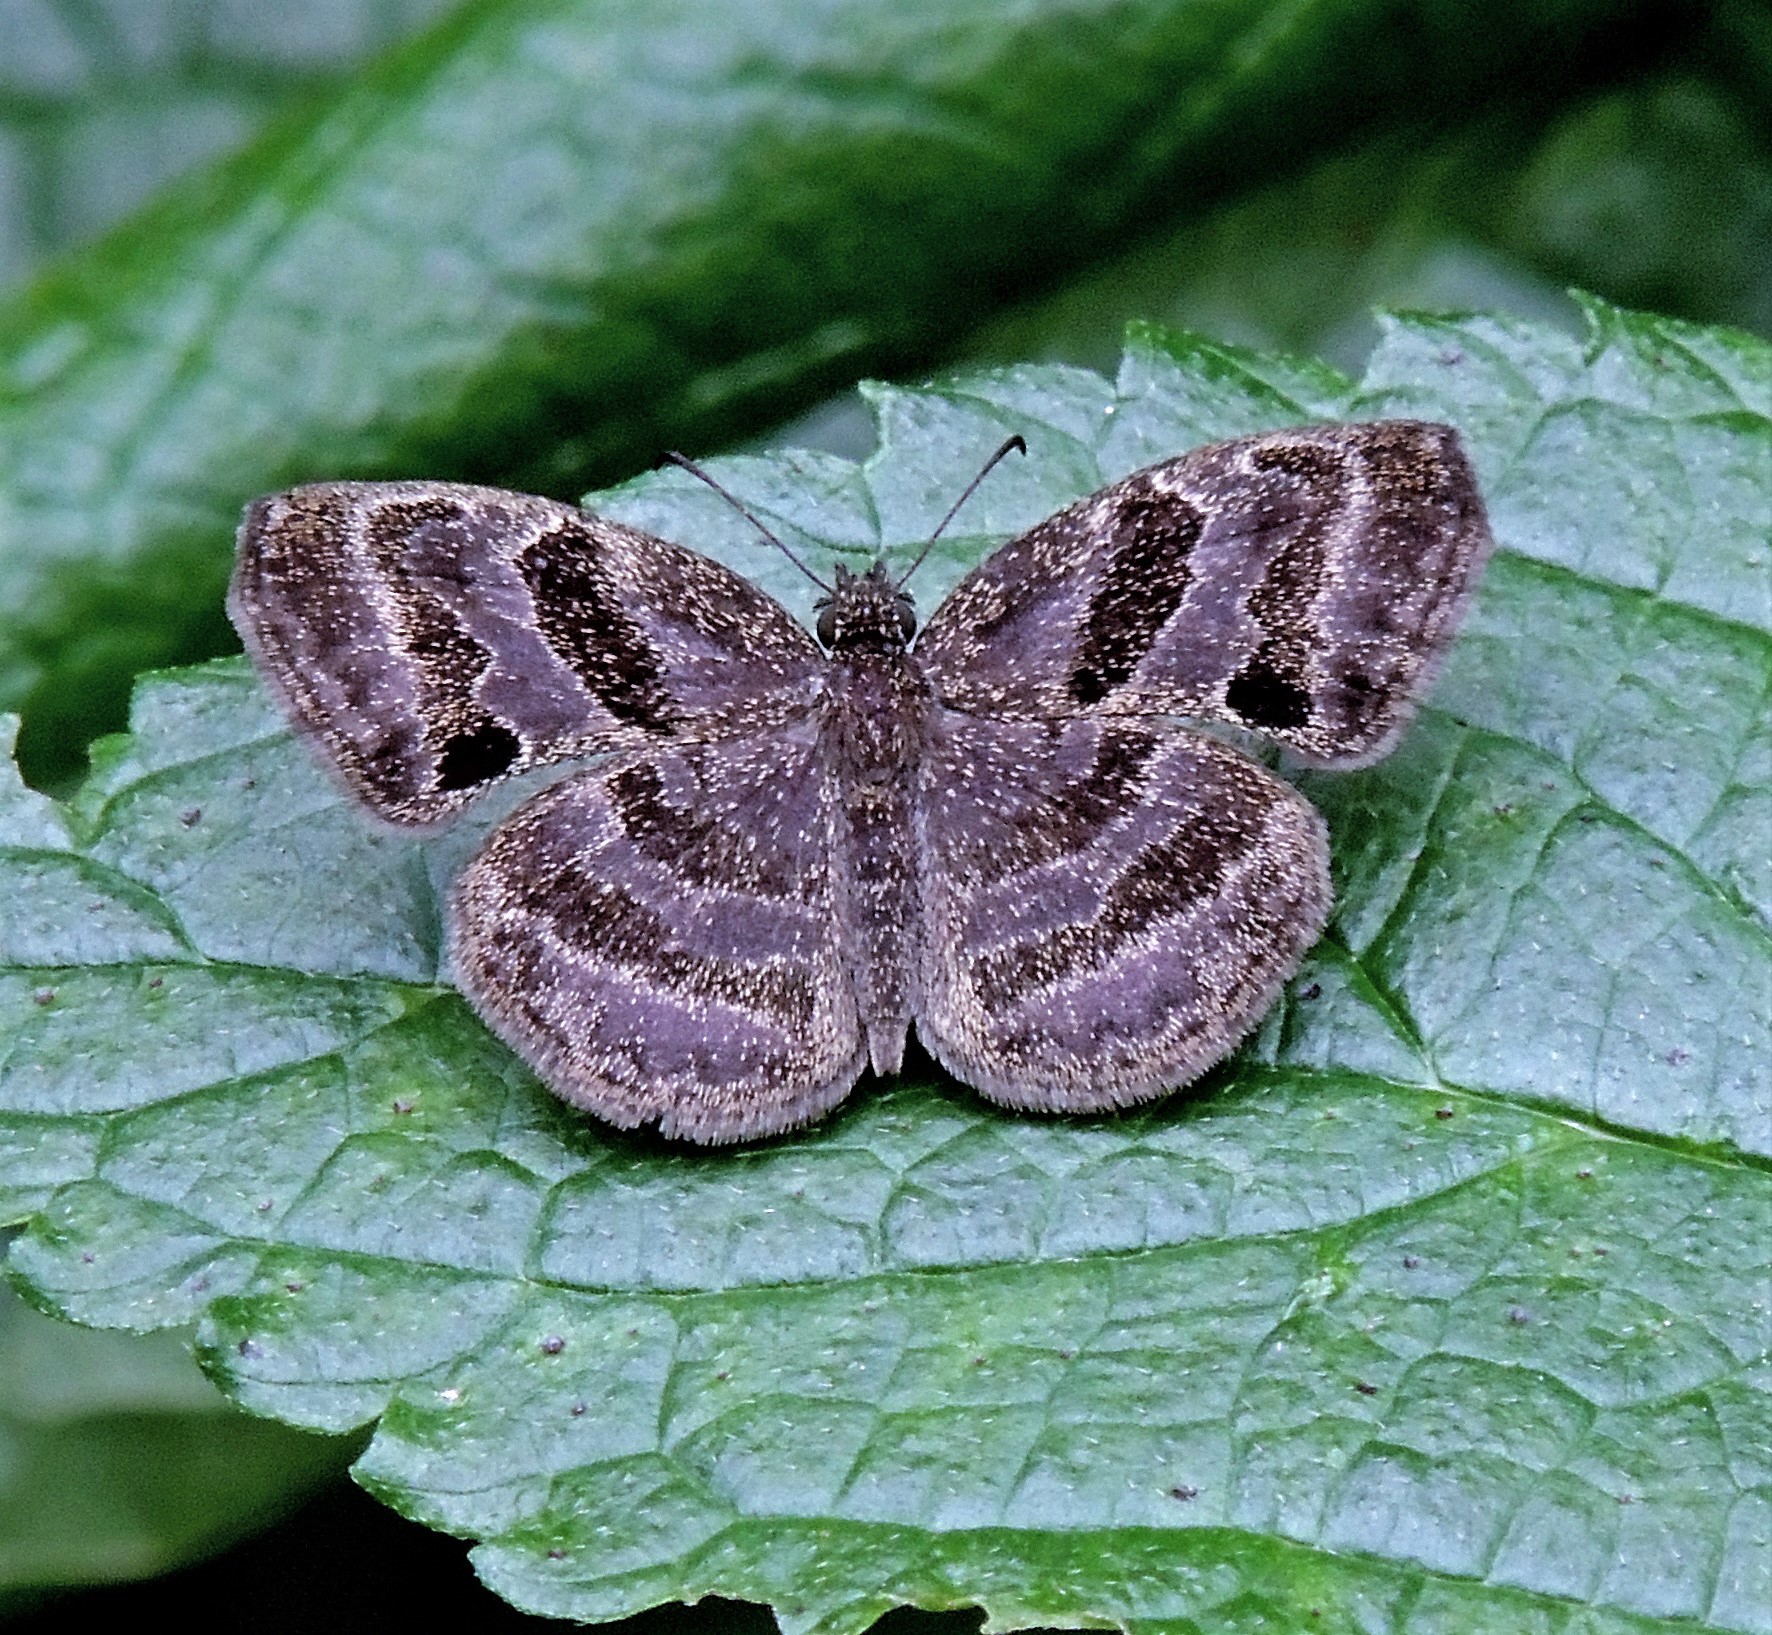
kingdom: Animalia
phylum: Arthropoda
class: Insecta
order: Lepidoptera
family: Hesperiidae
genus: Trina
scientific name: Trina geometrina
